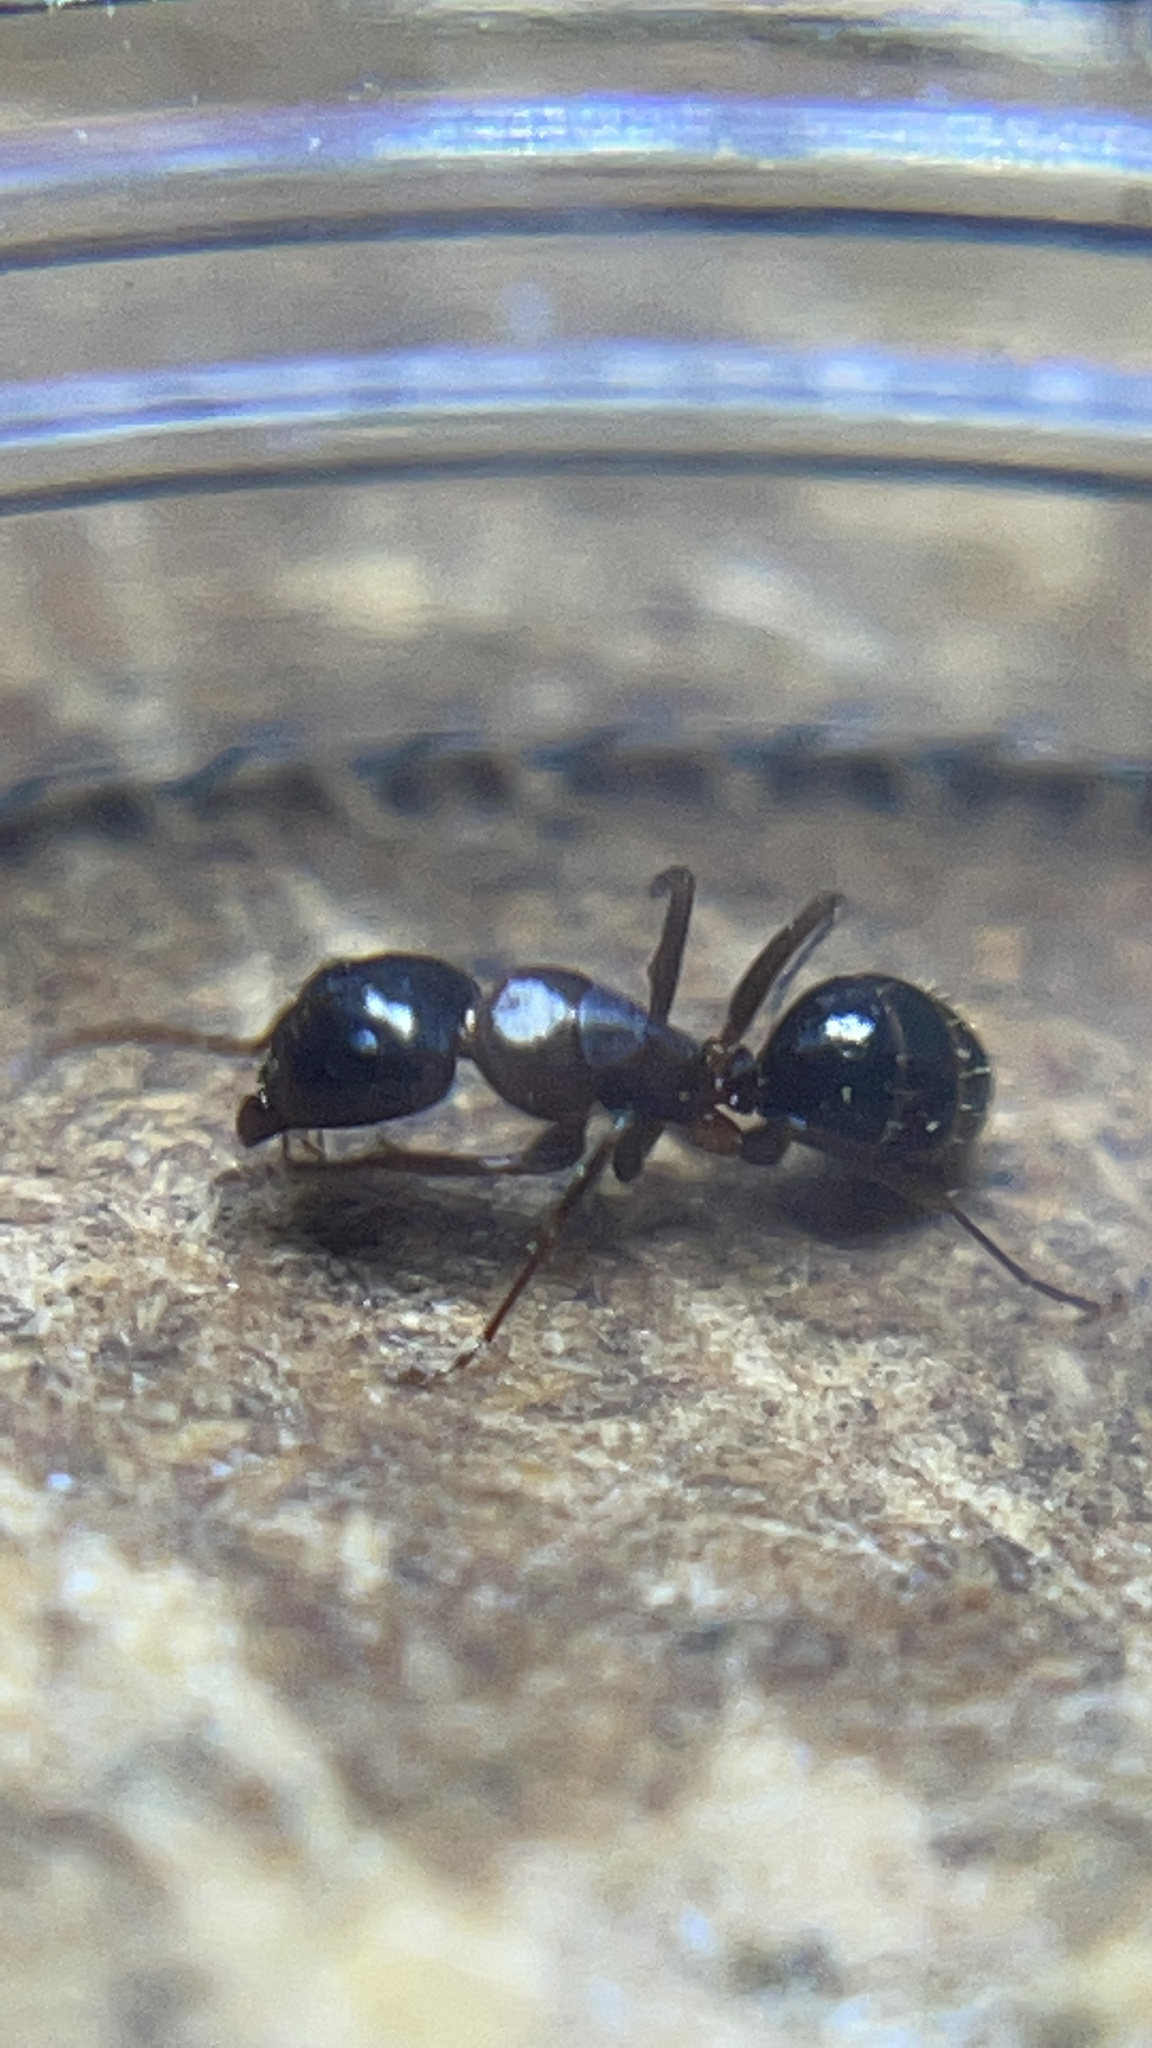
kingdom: Animalia
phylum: Arthropoda
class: Insecta
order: Hymenoptera
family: Formicidae
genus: Camponotus
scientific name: Camponotus nearcticus
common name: Smaller carpenter ant
